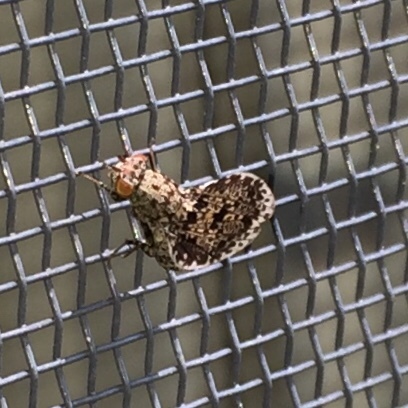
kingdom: Animalia
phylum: Arthropoda
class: Insecta
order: Diptera
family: Ulidiidae
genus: Callopistromyia
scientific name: Callopistromyia annulipes
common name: Peacock fly
